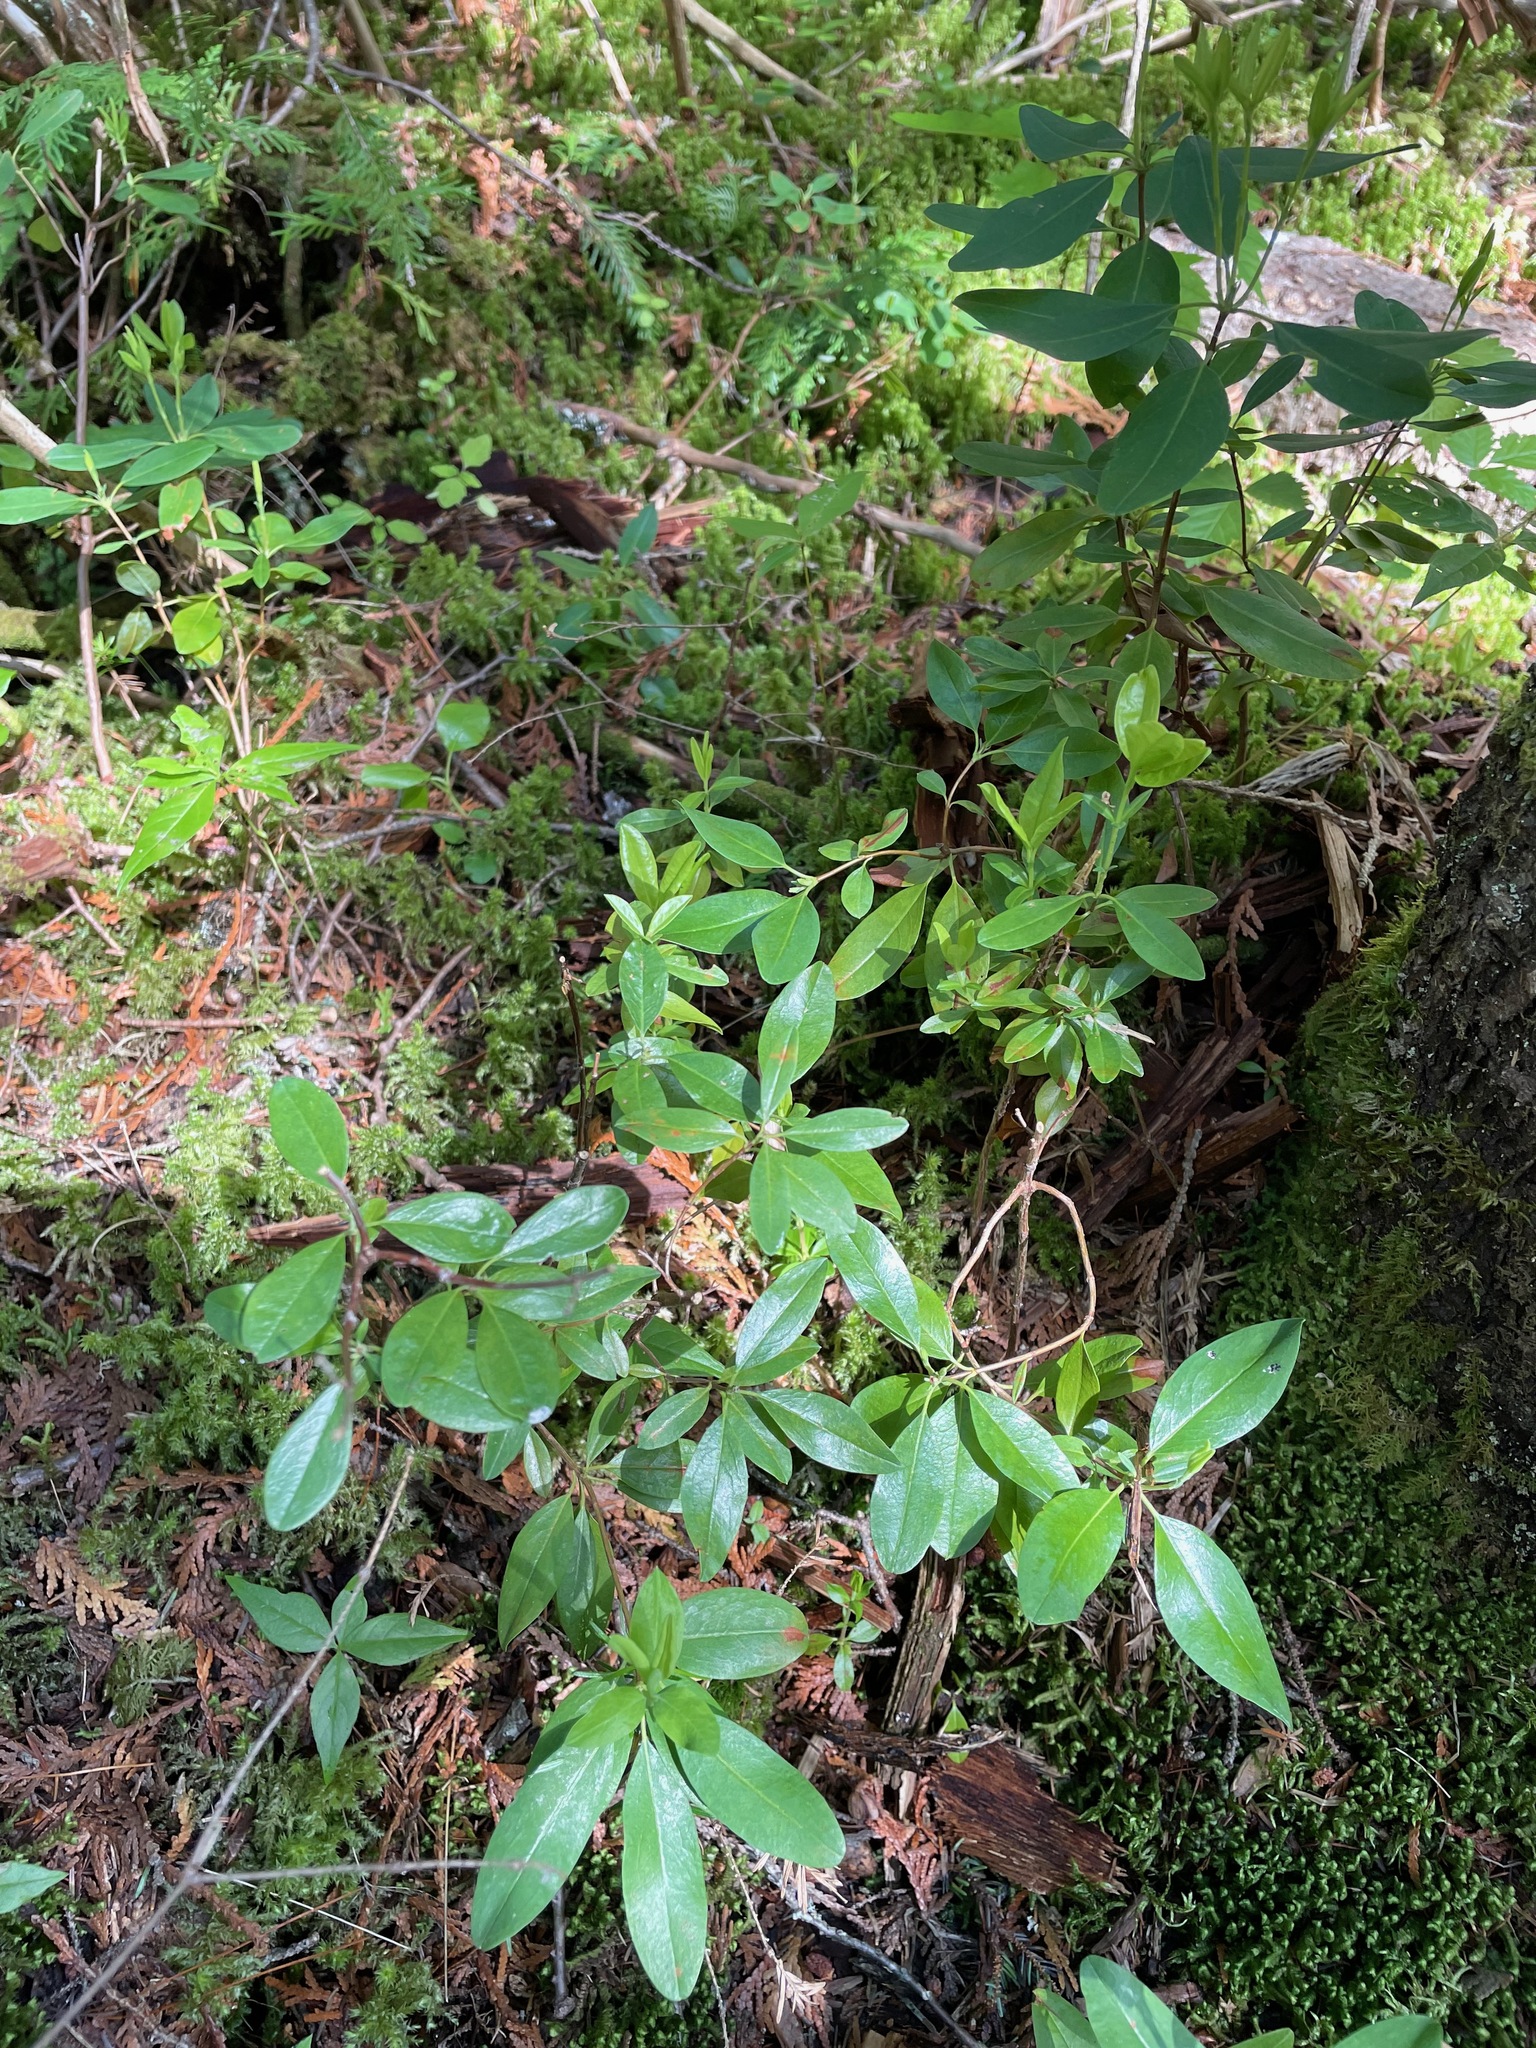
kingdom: Plantae
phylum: Tracheophyta
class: Magnoliopsida
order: Ericales
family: Ericaceae
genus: Kalmia
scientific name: Kalmia angustifolia
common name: Sheep-laurel
